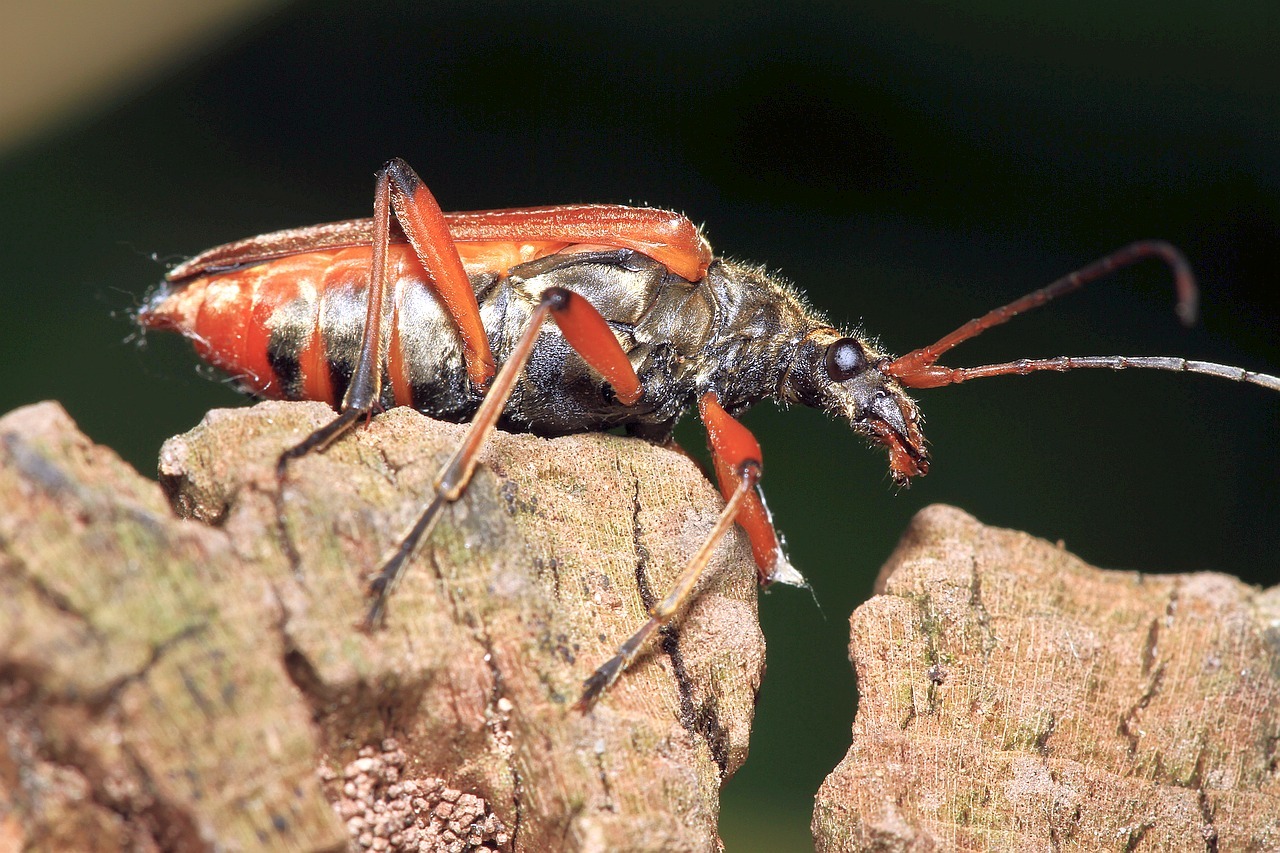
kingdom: Animalia
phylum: Arthropoda
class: Insecta
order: Coleoptera
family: Cerambycidae
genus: Stenocorus
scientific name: Stenocorus meridianus
